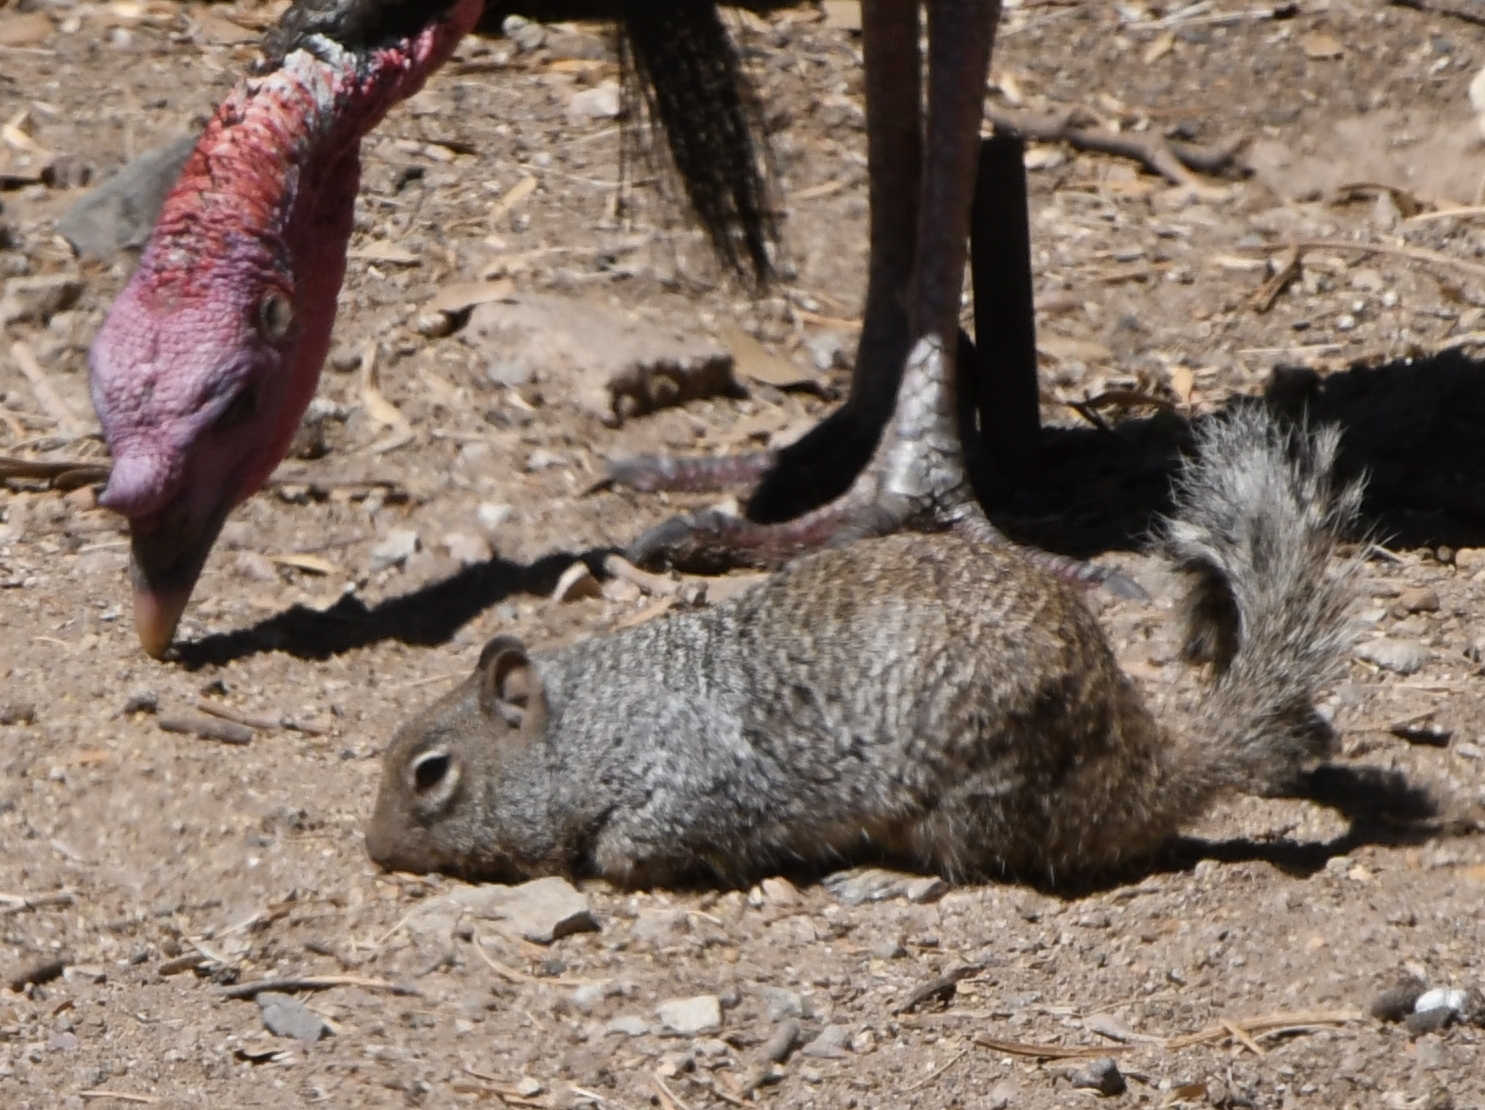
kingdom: Animalia
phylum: Chordata
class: Mammalia
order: Rodentia
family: Sciuridae
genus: Otospermophilus
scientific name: Otospermophilus variegatus
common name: Rock squirrel
